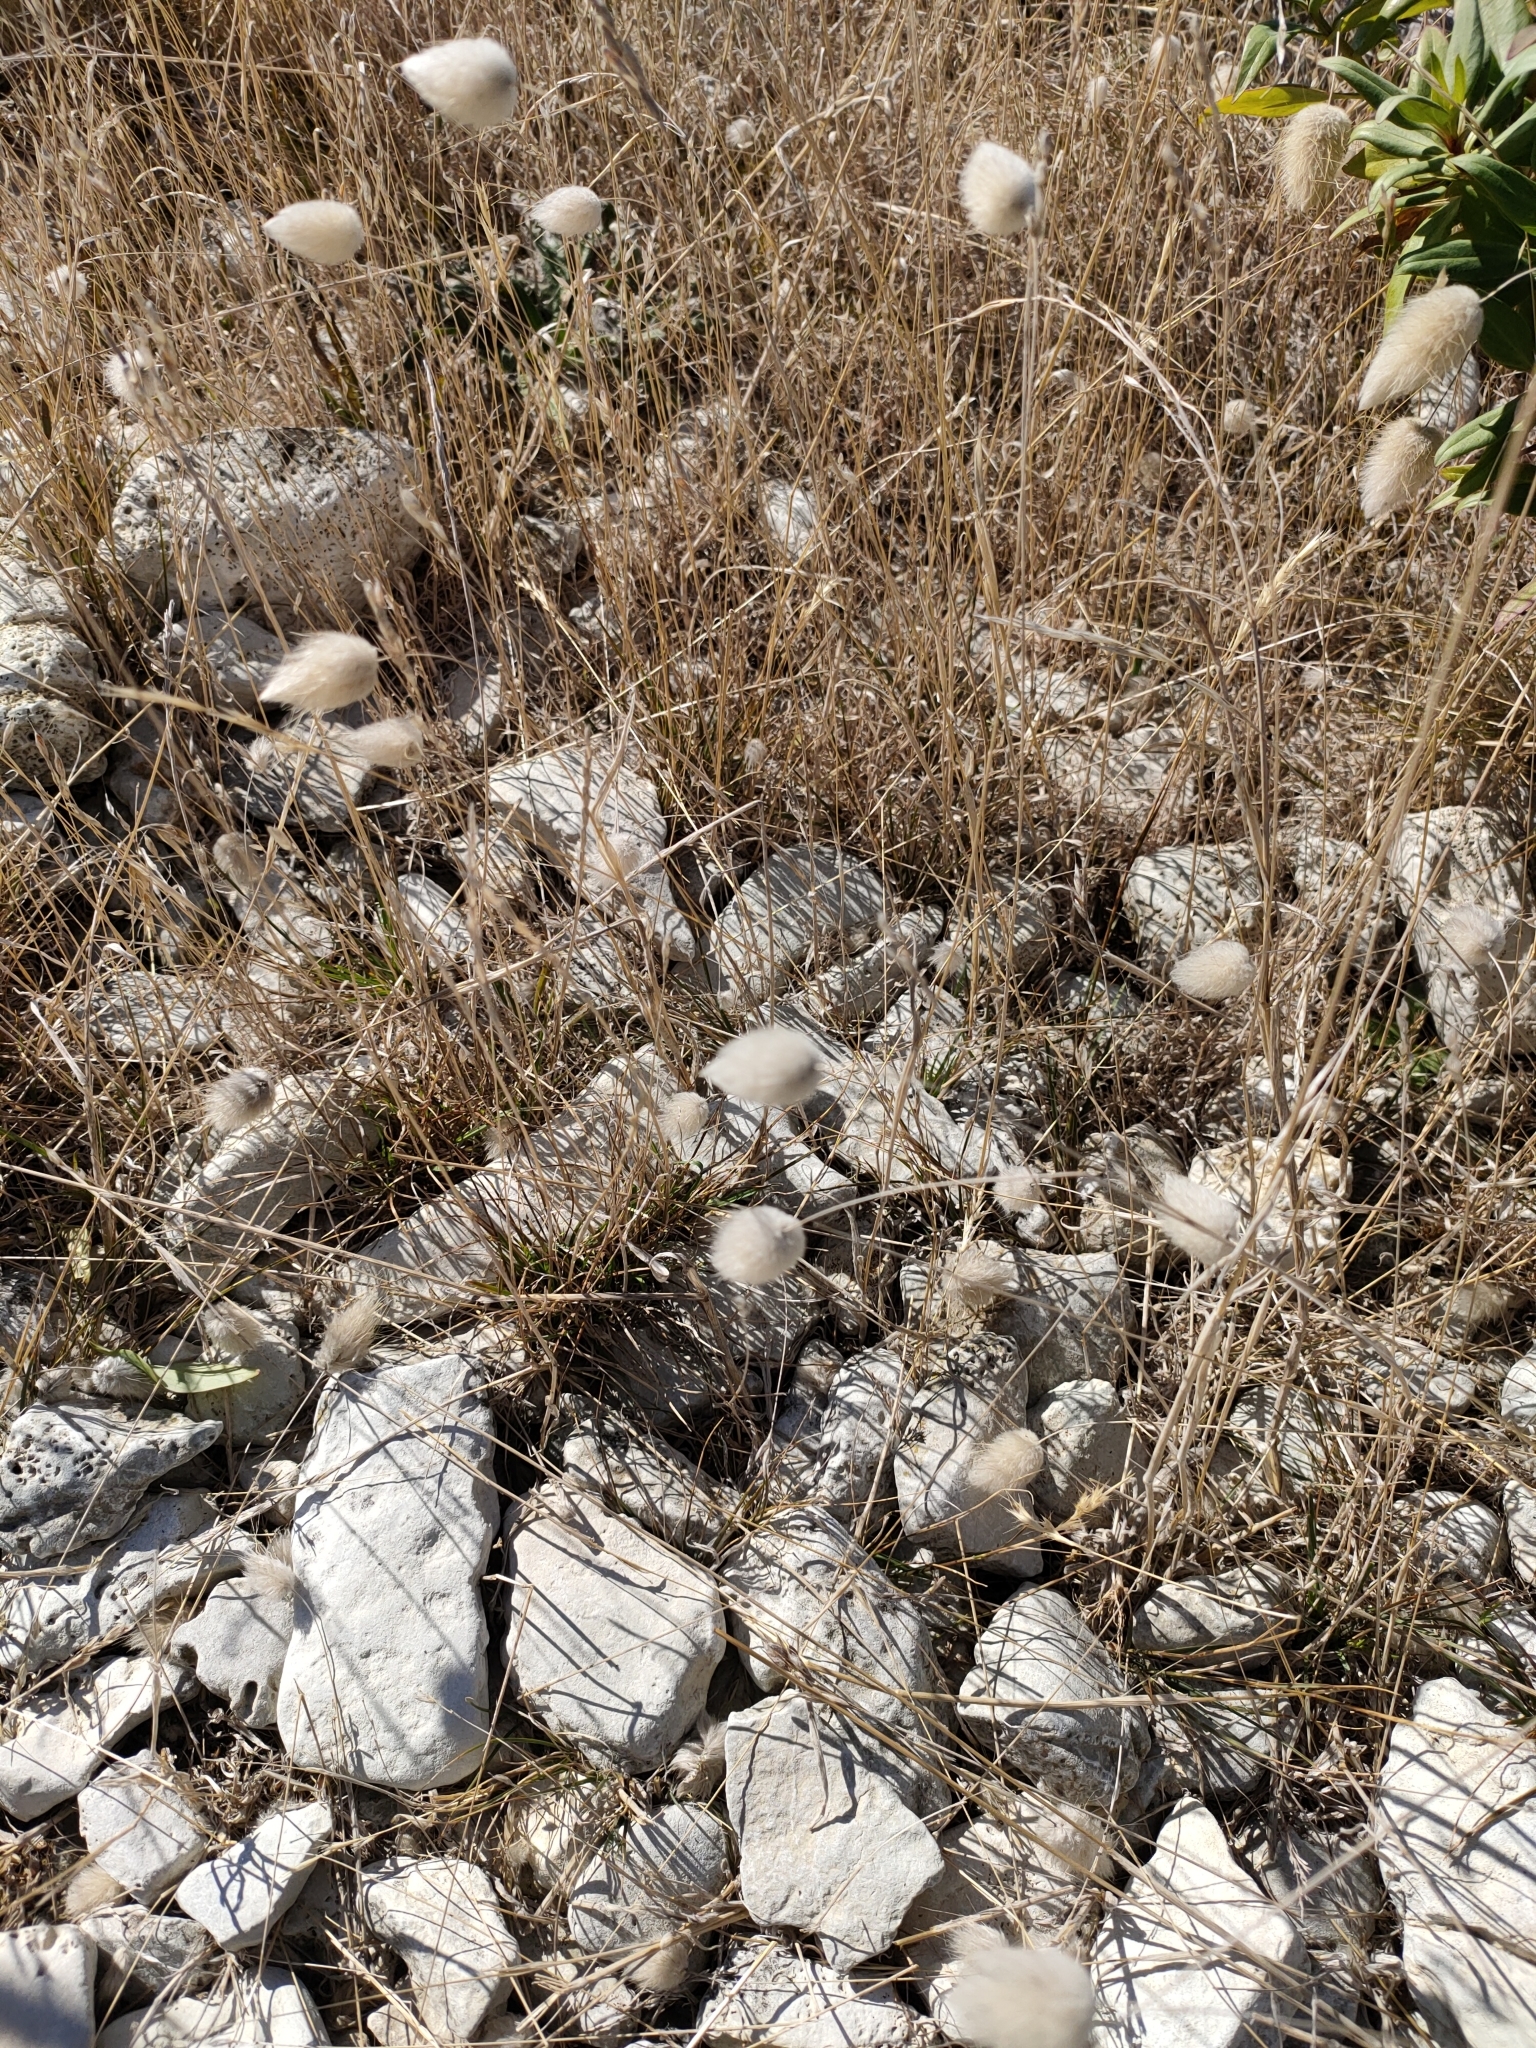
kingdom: Plantae
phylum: Tracheophyta
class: Liliopsida
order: Poales
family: Poaceae
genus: Lagurus
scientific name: Lagurus ovatus
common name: Hare's-tail
